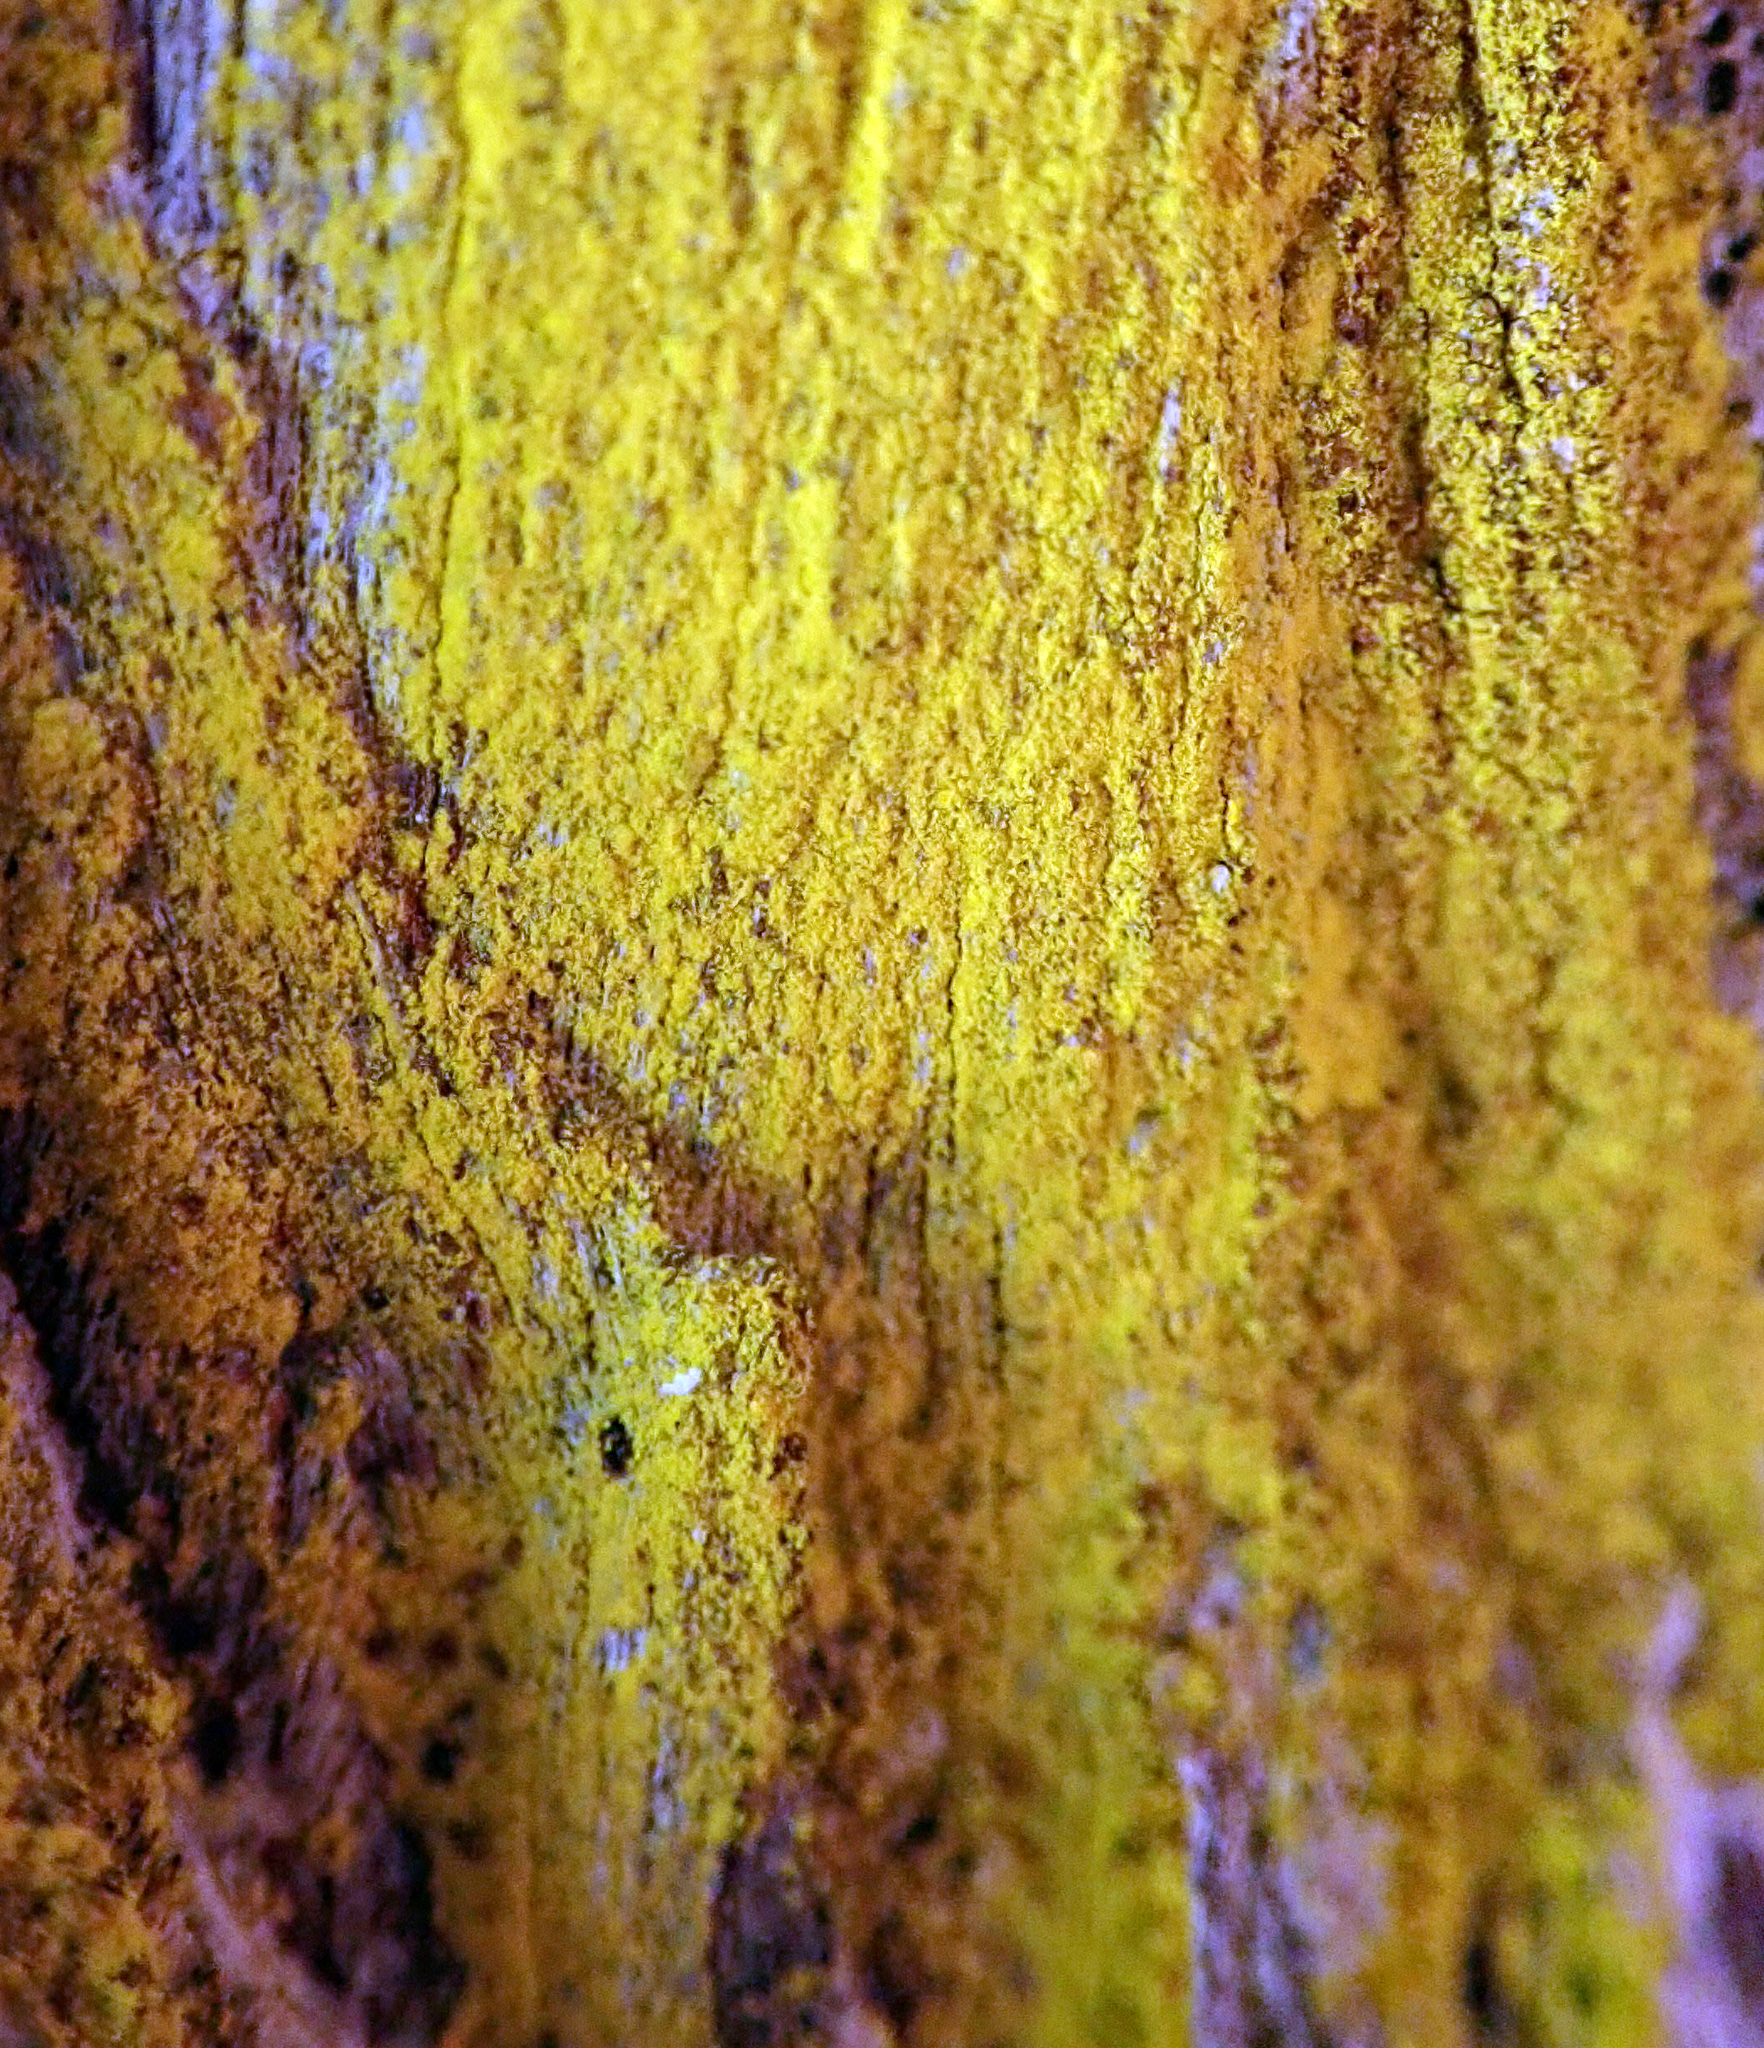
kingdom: Fungi
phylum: Ascomycota
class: Arthoniomycetes
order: Arthoniales
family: Chrysotrichaceae
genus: Chrysothrix
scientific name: Chrysothrix xanthina
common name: Common gold-dust
